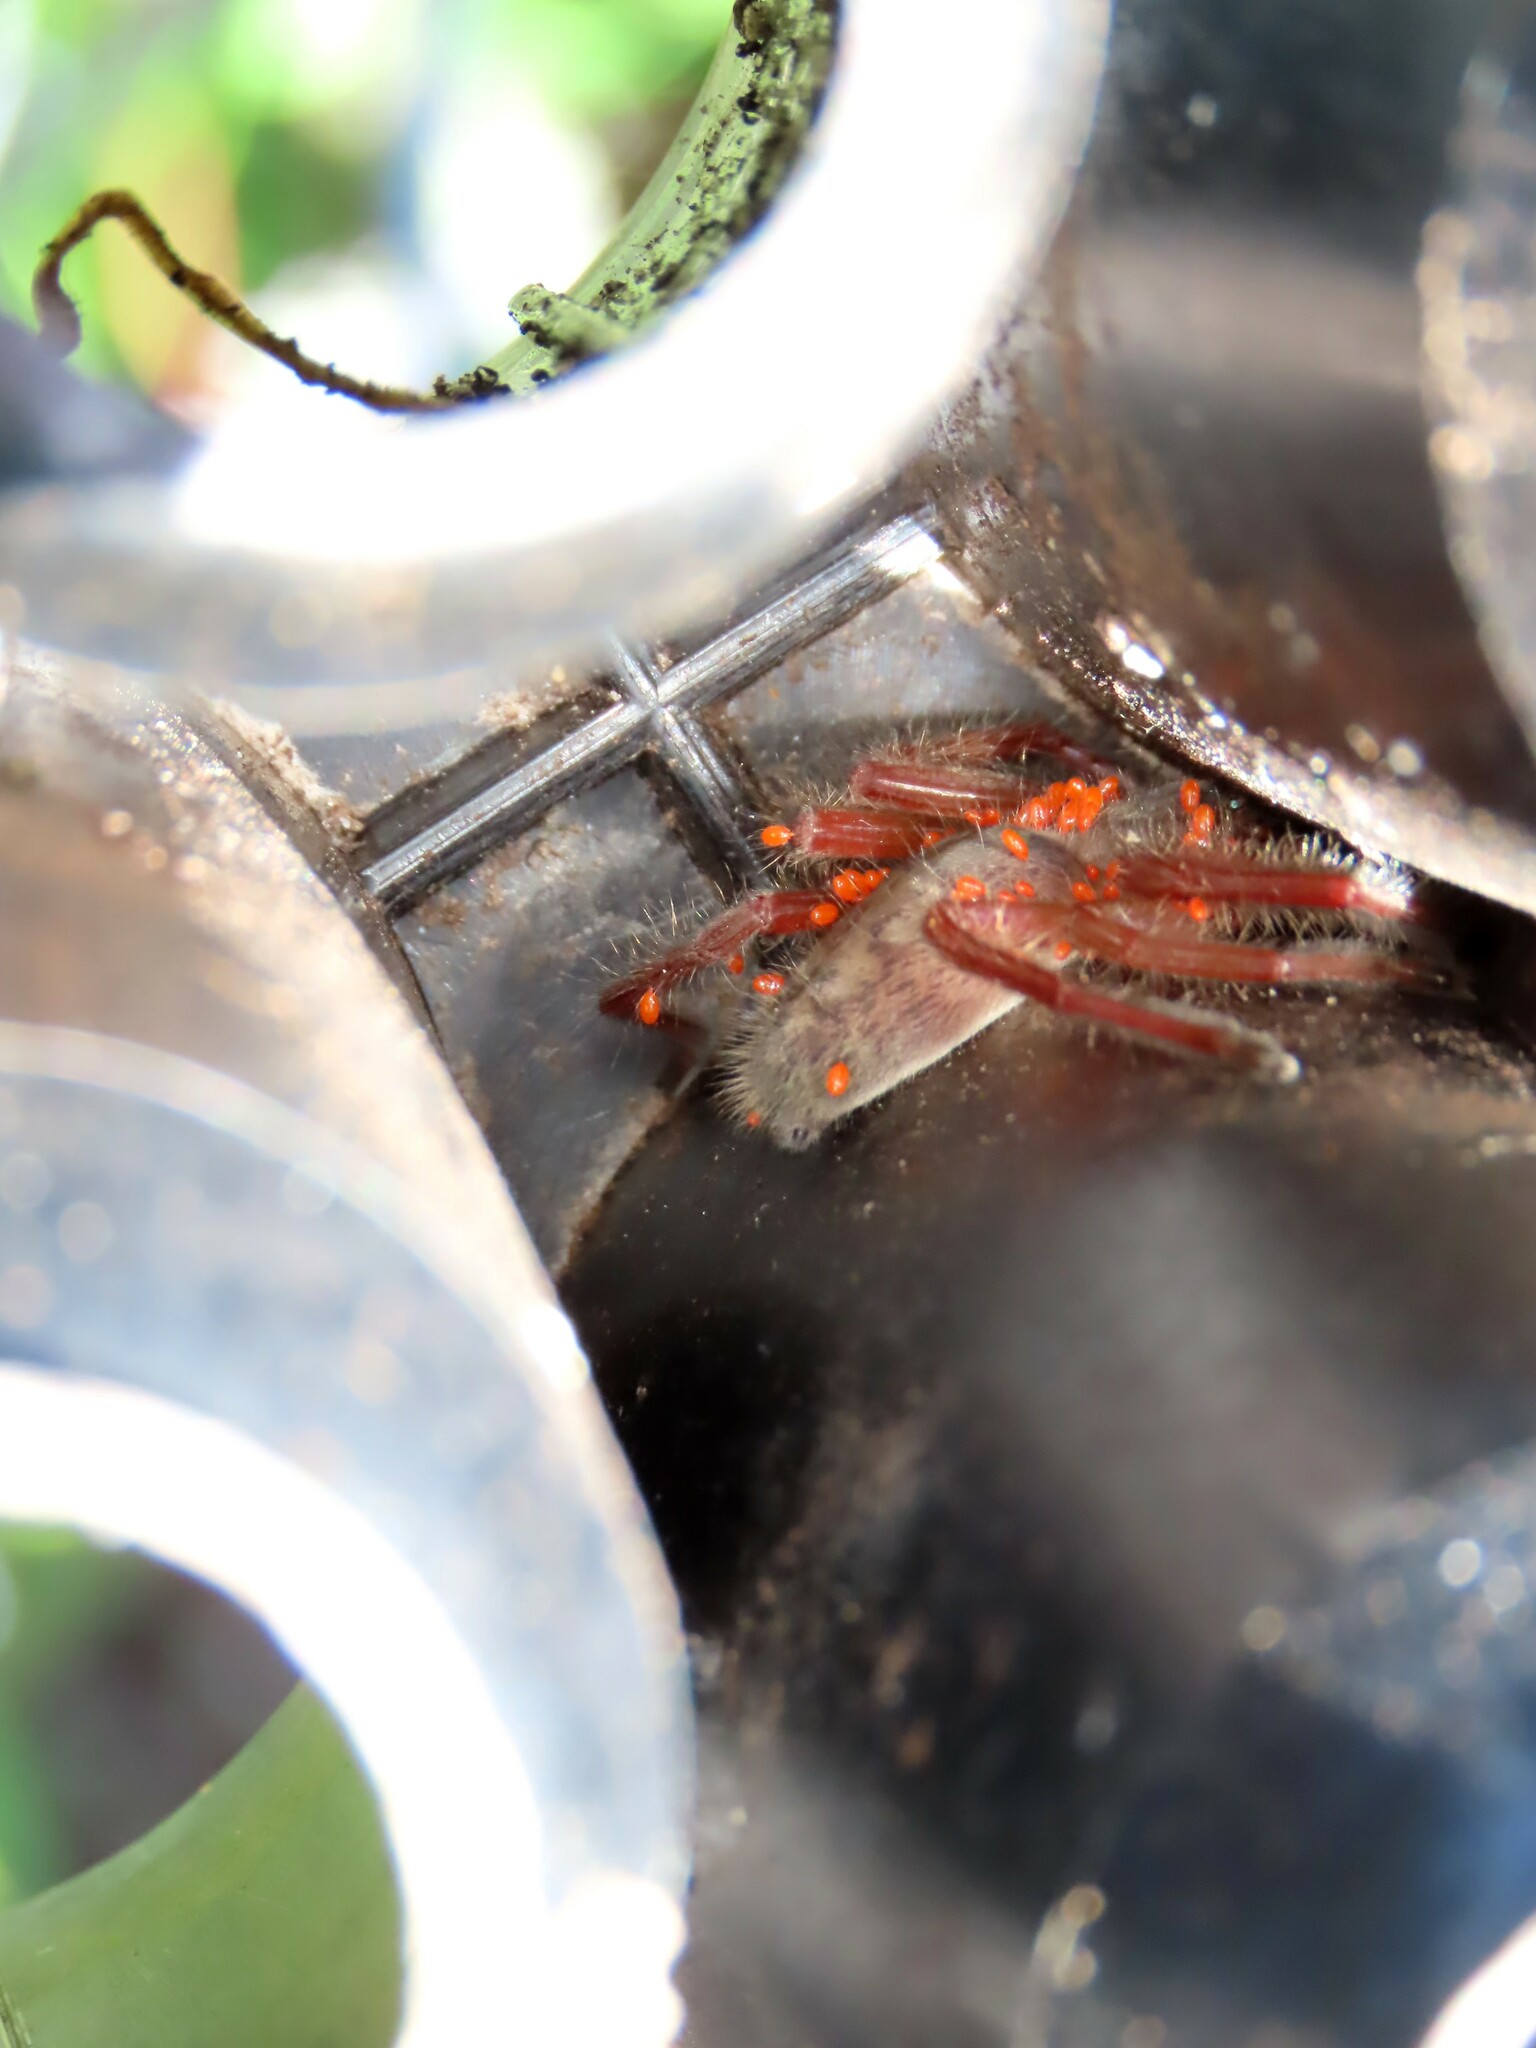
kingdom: Animalia
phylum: Arthropoda
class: Arachnida
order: Araneae
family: Sparassidae
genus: Delena
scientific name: Delena cancerides
